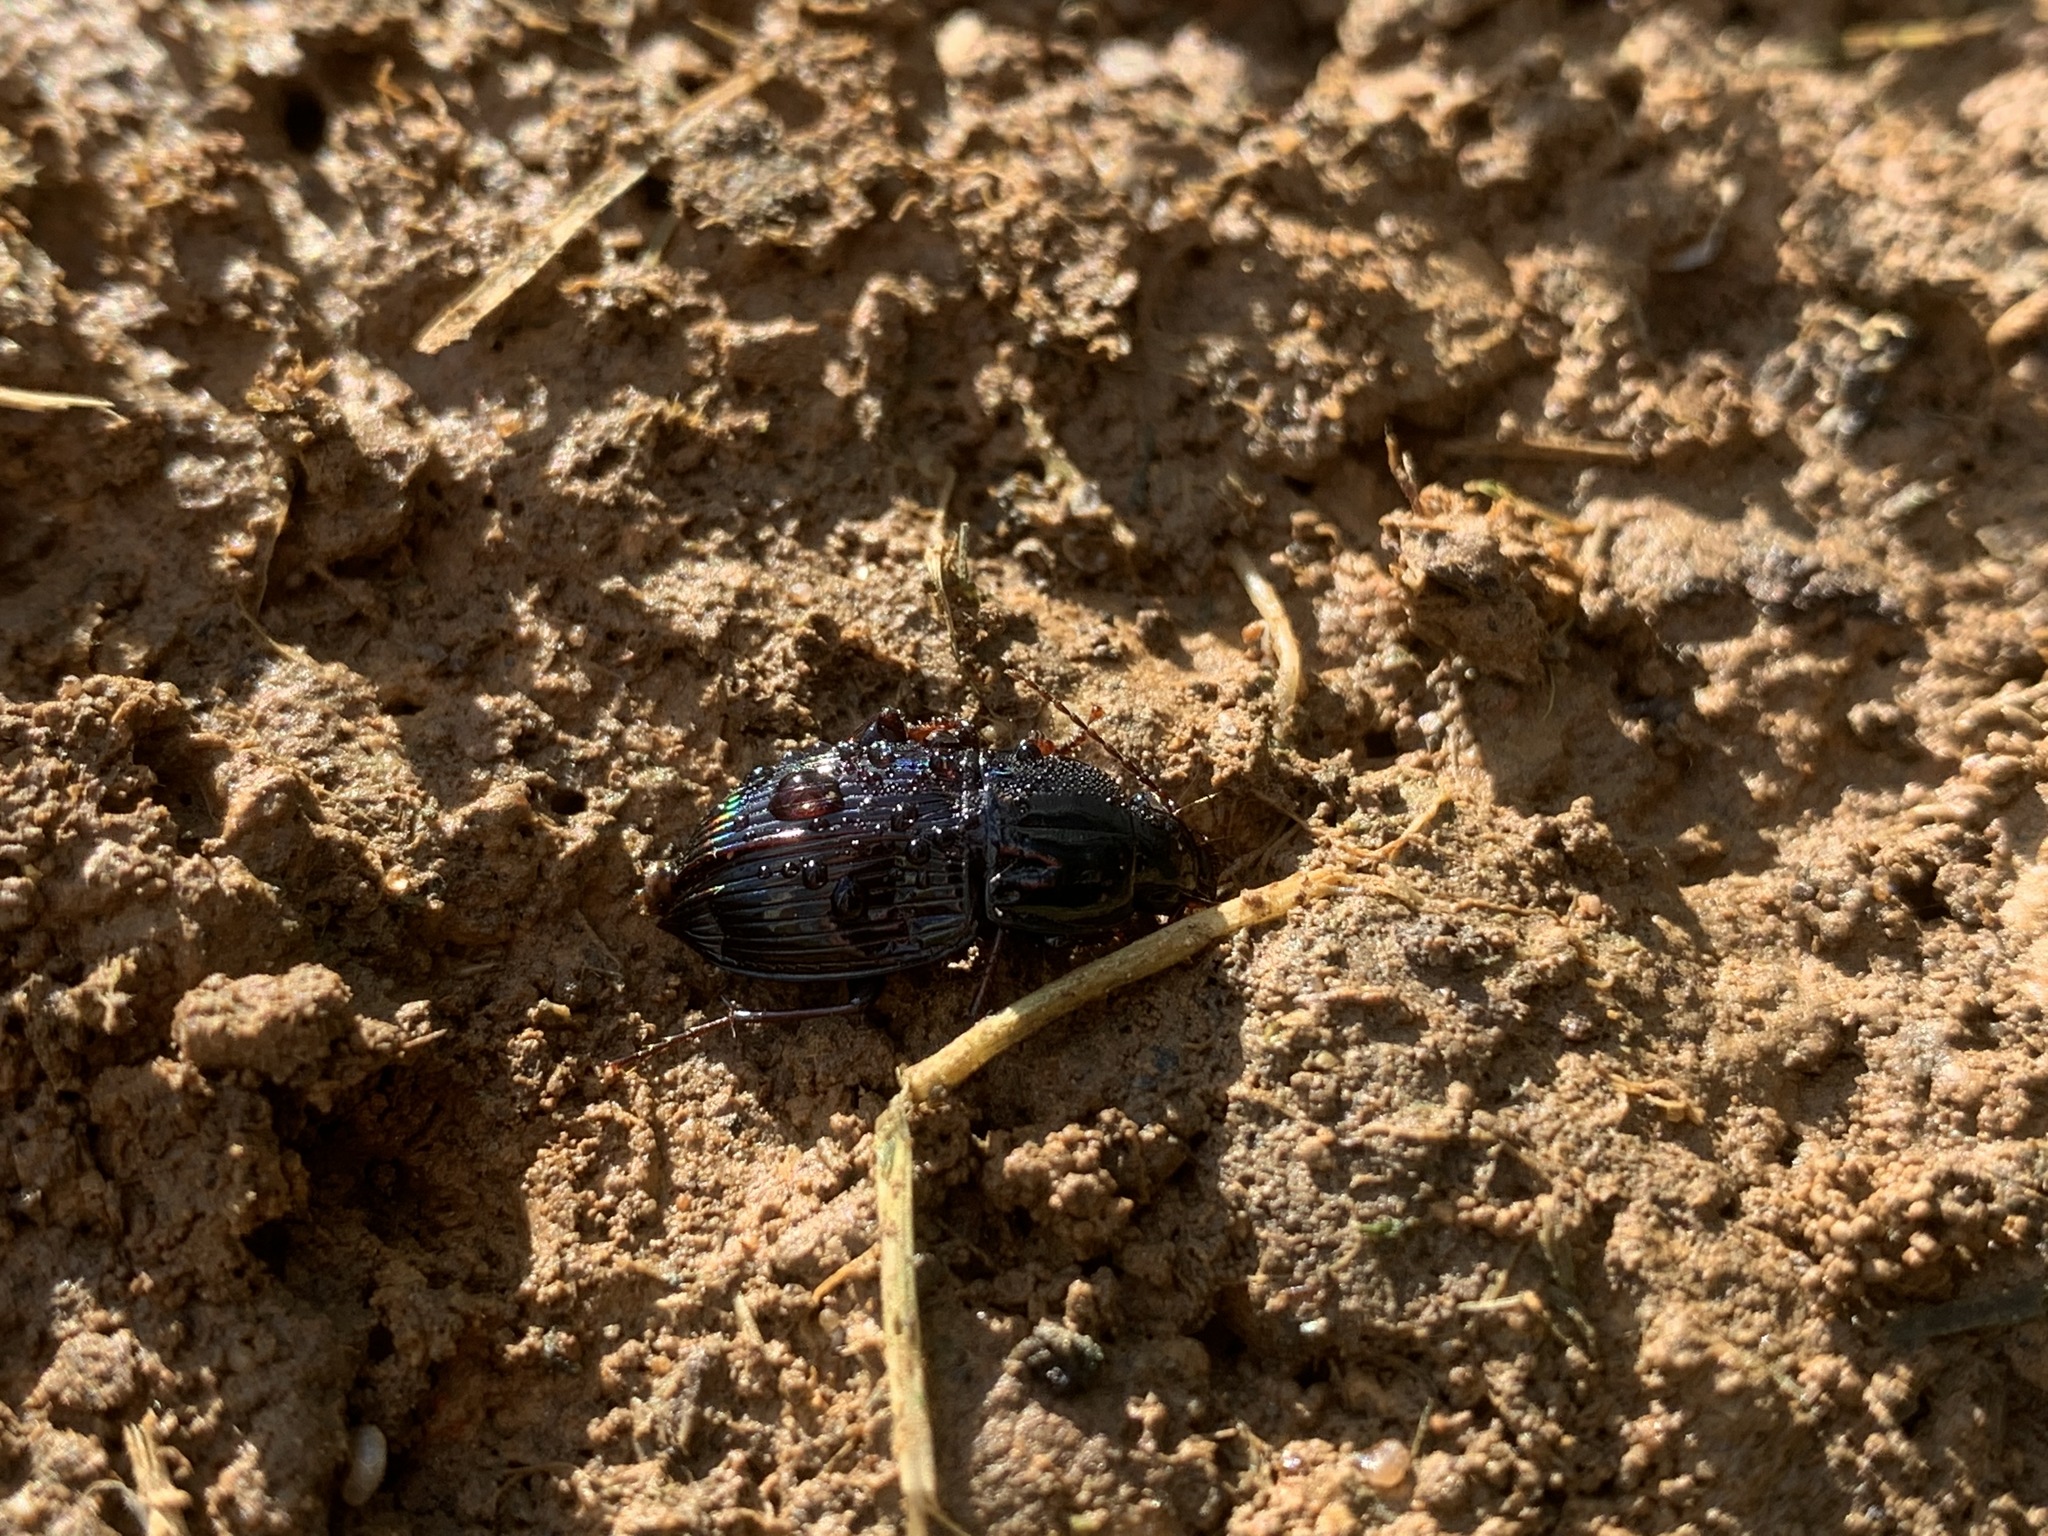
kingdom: Animalia
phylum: Arthropoda
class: Insecta
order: Coleoptera
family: Carabidae
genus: Abacidus
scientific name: Abacidus
